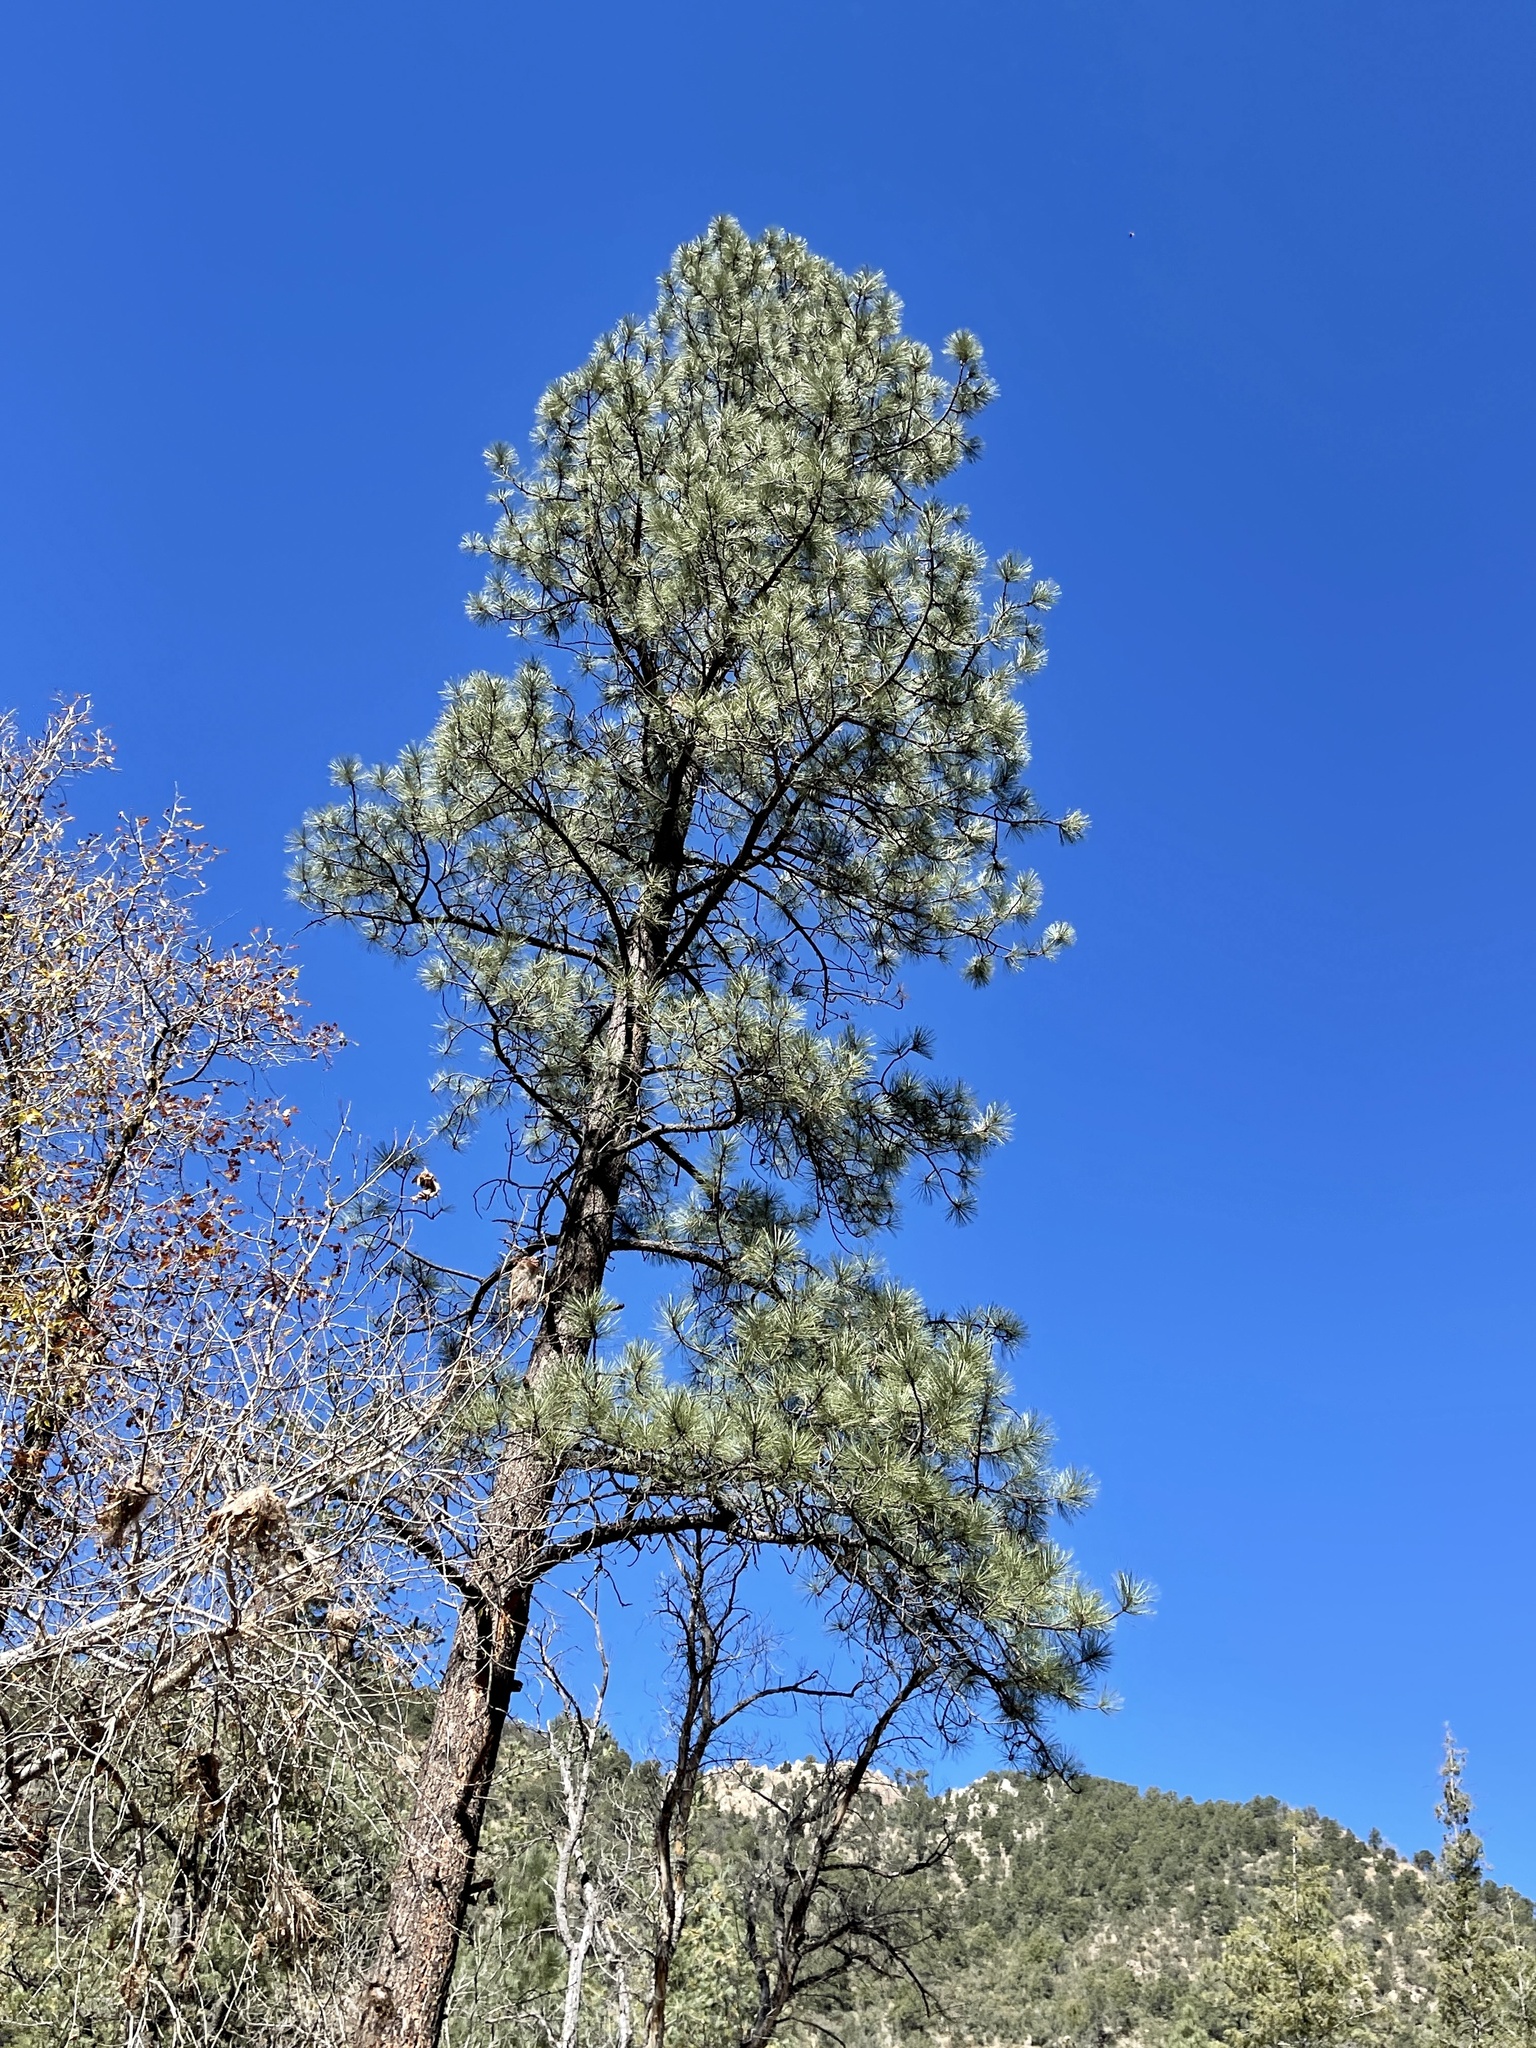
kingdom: Plantae
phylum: Tracheophyta
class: Pinopsida
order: Pinales
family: Pinaceae
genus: Pinus
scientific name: Pinus ponderosa
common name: Western yellow-pine
